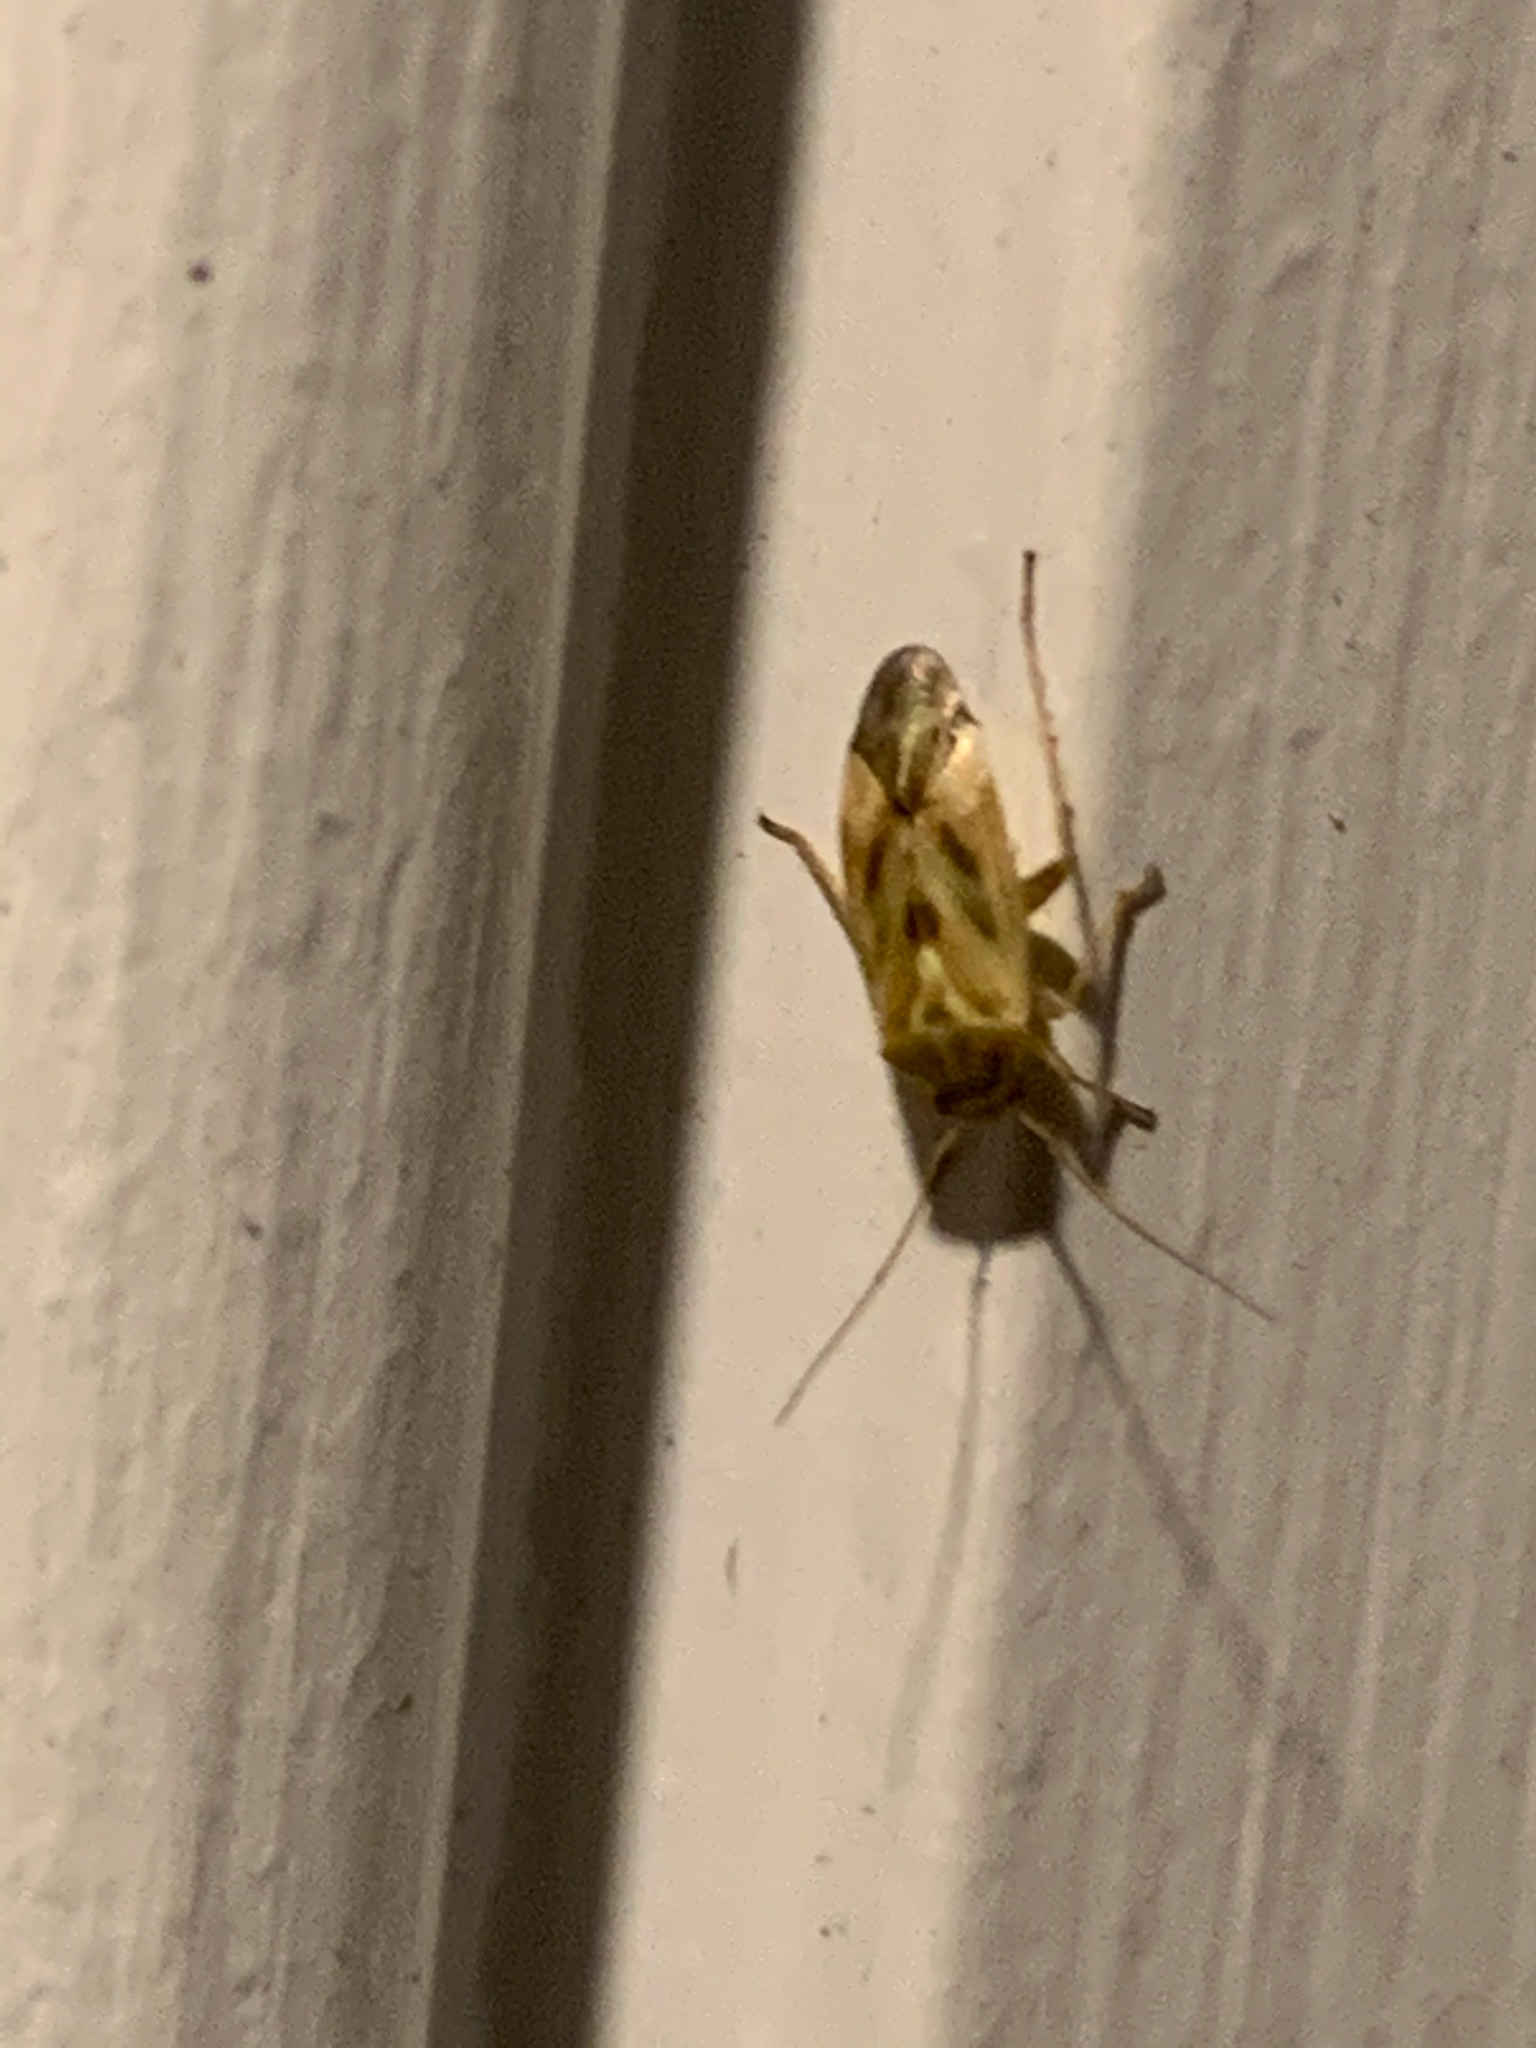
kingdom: Animalia
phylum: Arthropoda
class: Insecta
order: Hemiptera
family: Miridae
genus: Taylorilygus
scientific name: Taylorilygus apicalis
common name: Plant bug
